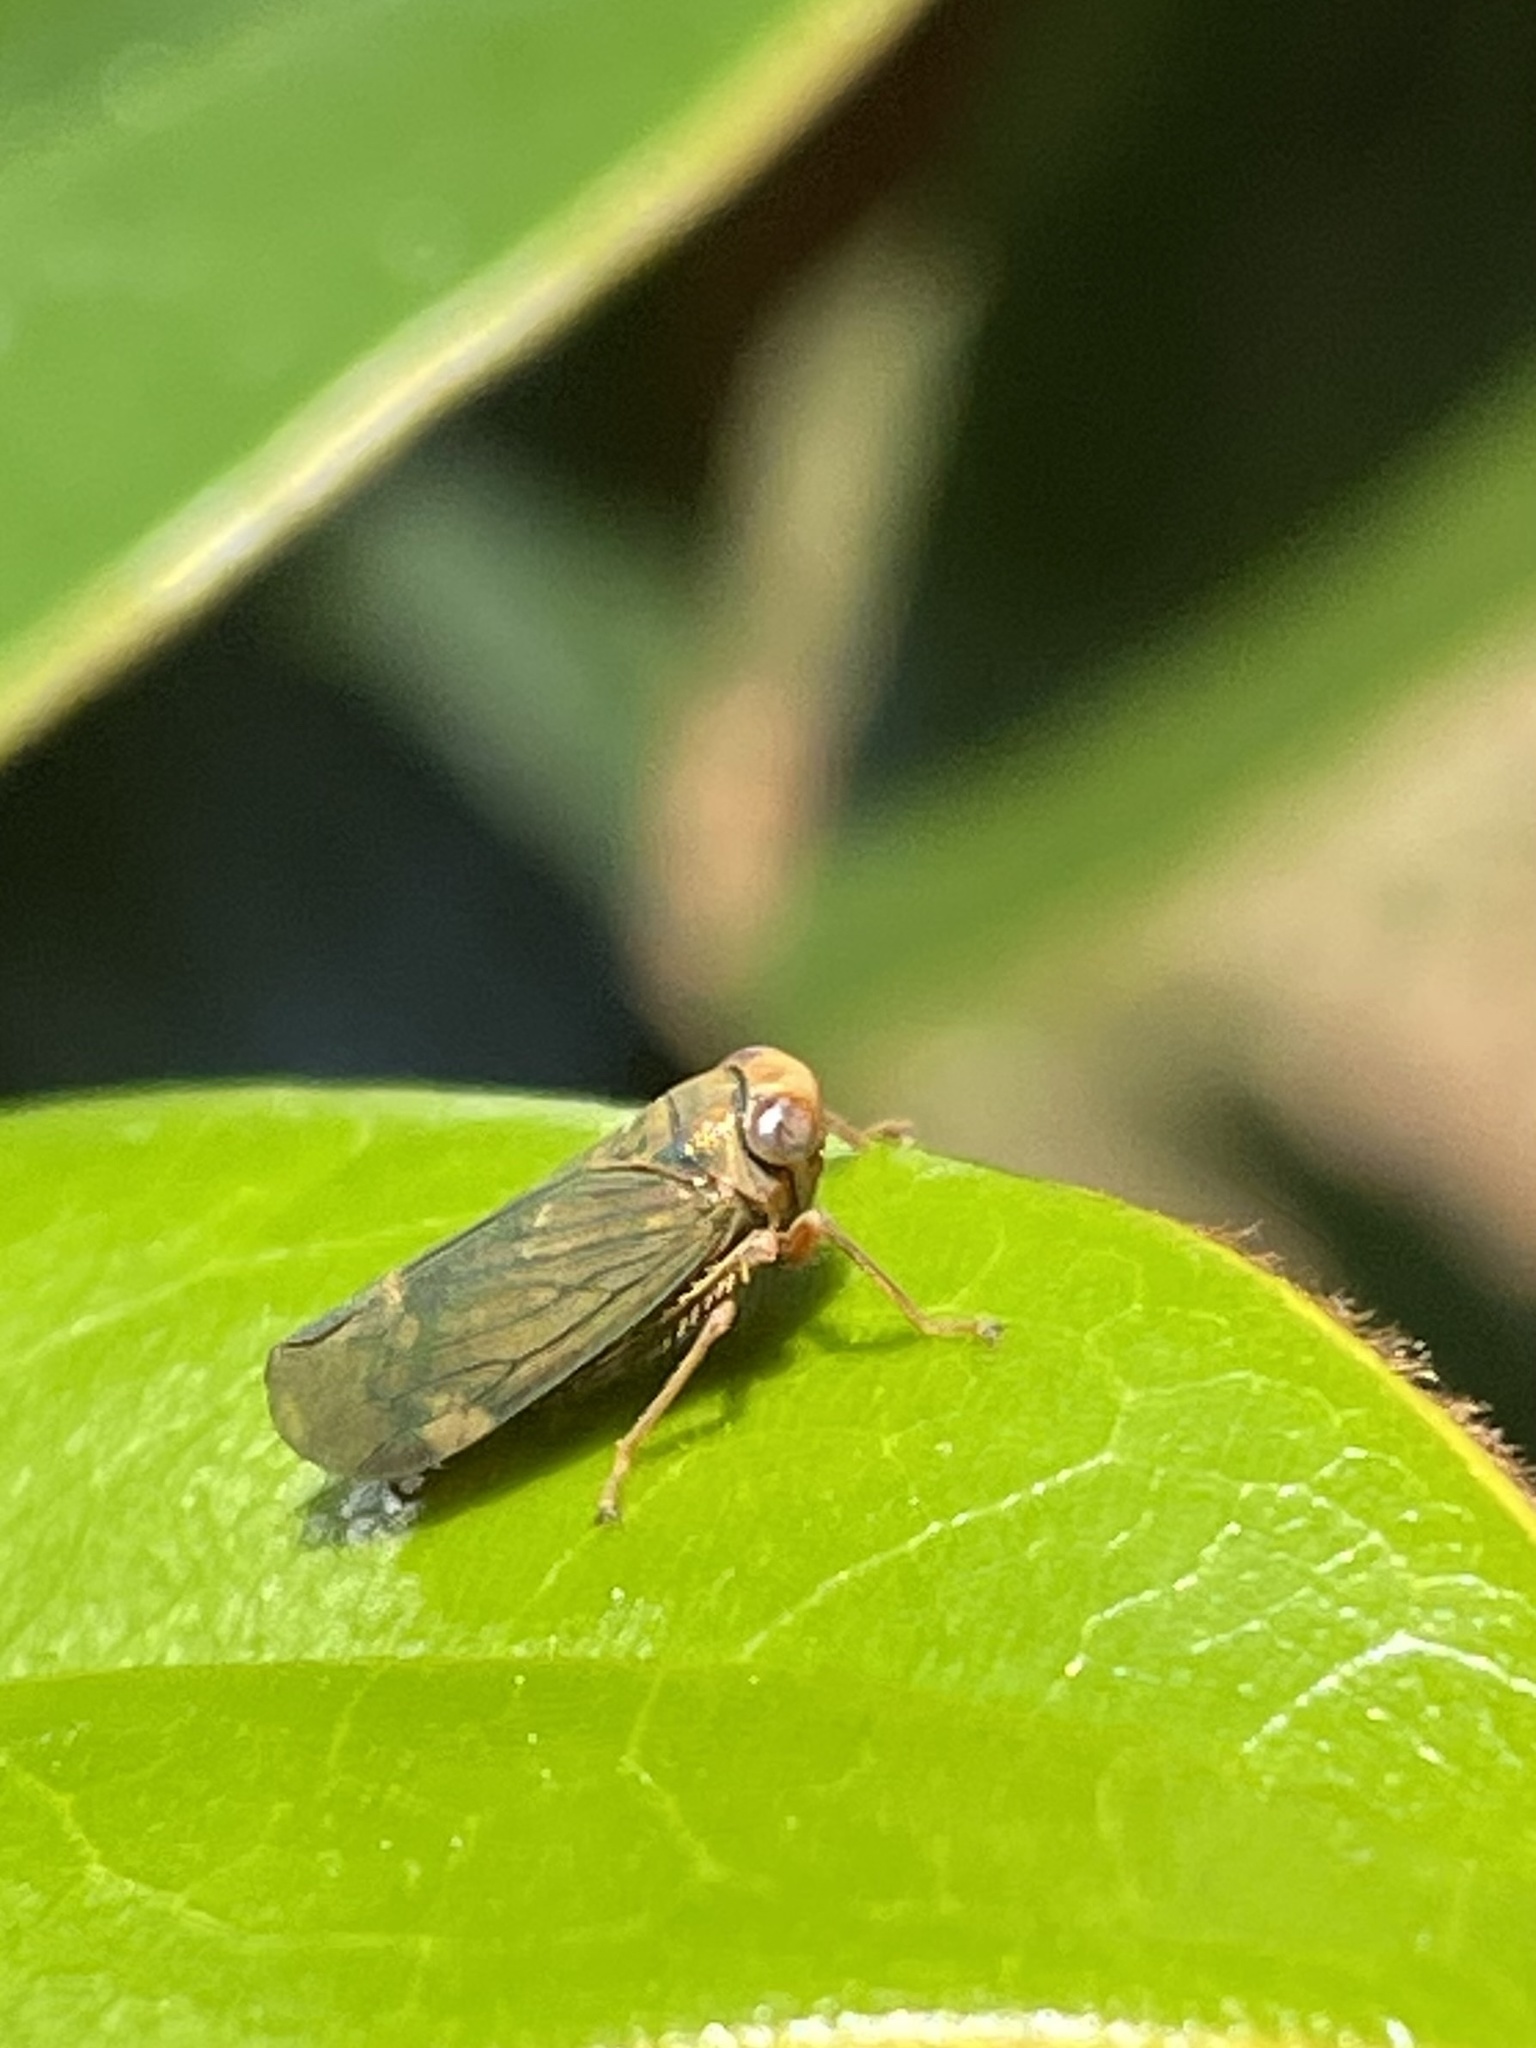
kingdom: Animalia
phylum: Arthropoda
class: Insecta
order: Hemiptera
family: Cicadellidae
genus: Jikradia
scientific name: Jikradia olitoria
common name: Coppery leafhopper
